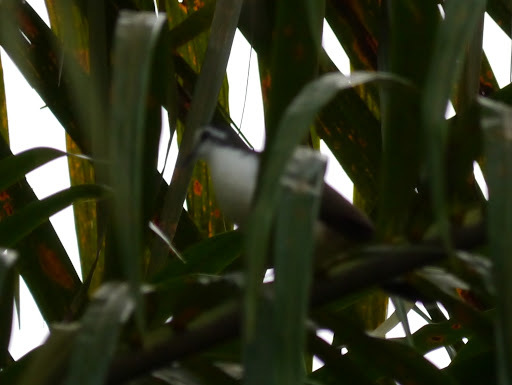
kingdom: Animalia
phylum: Chordata
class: Aves
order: Columbiformes
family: Columbidae
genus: Turtur
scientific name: Turtur tympanistria
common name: Tambourine dove
